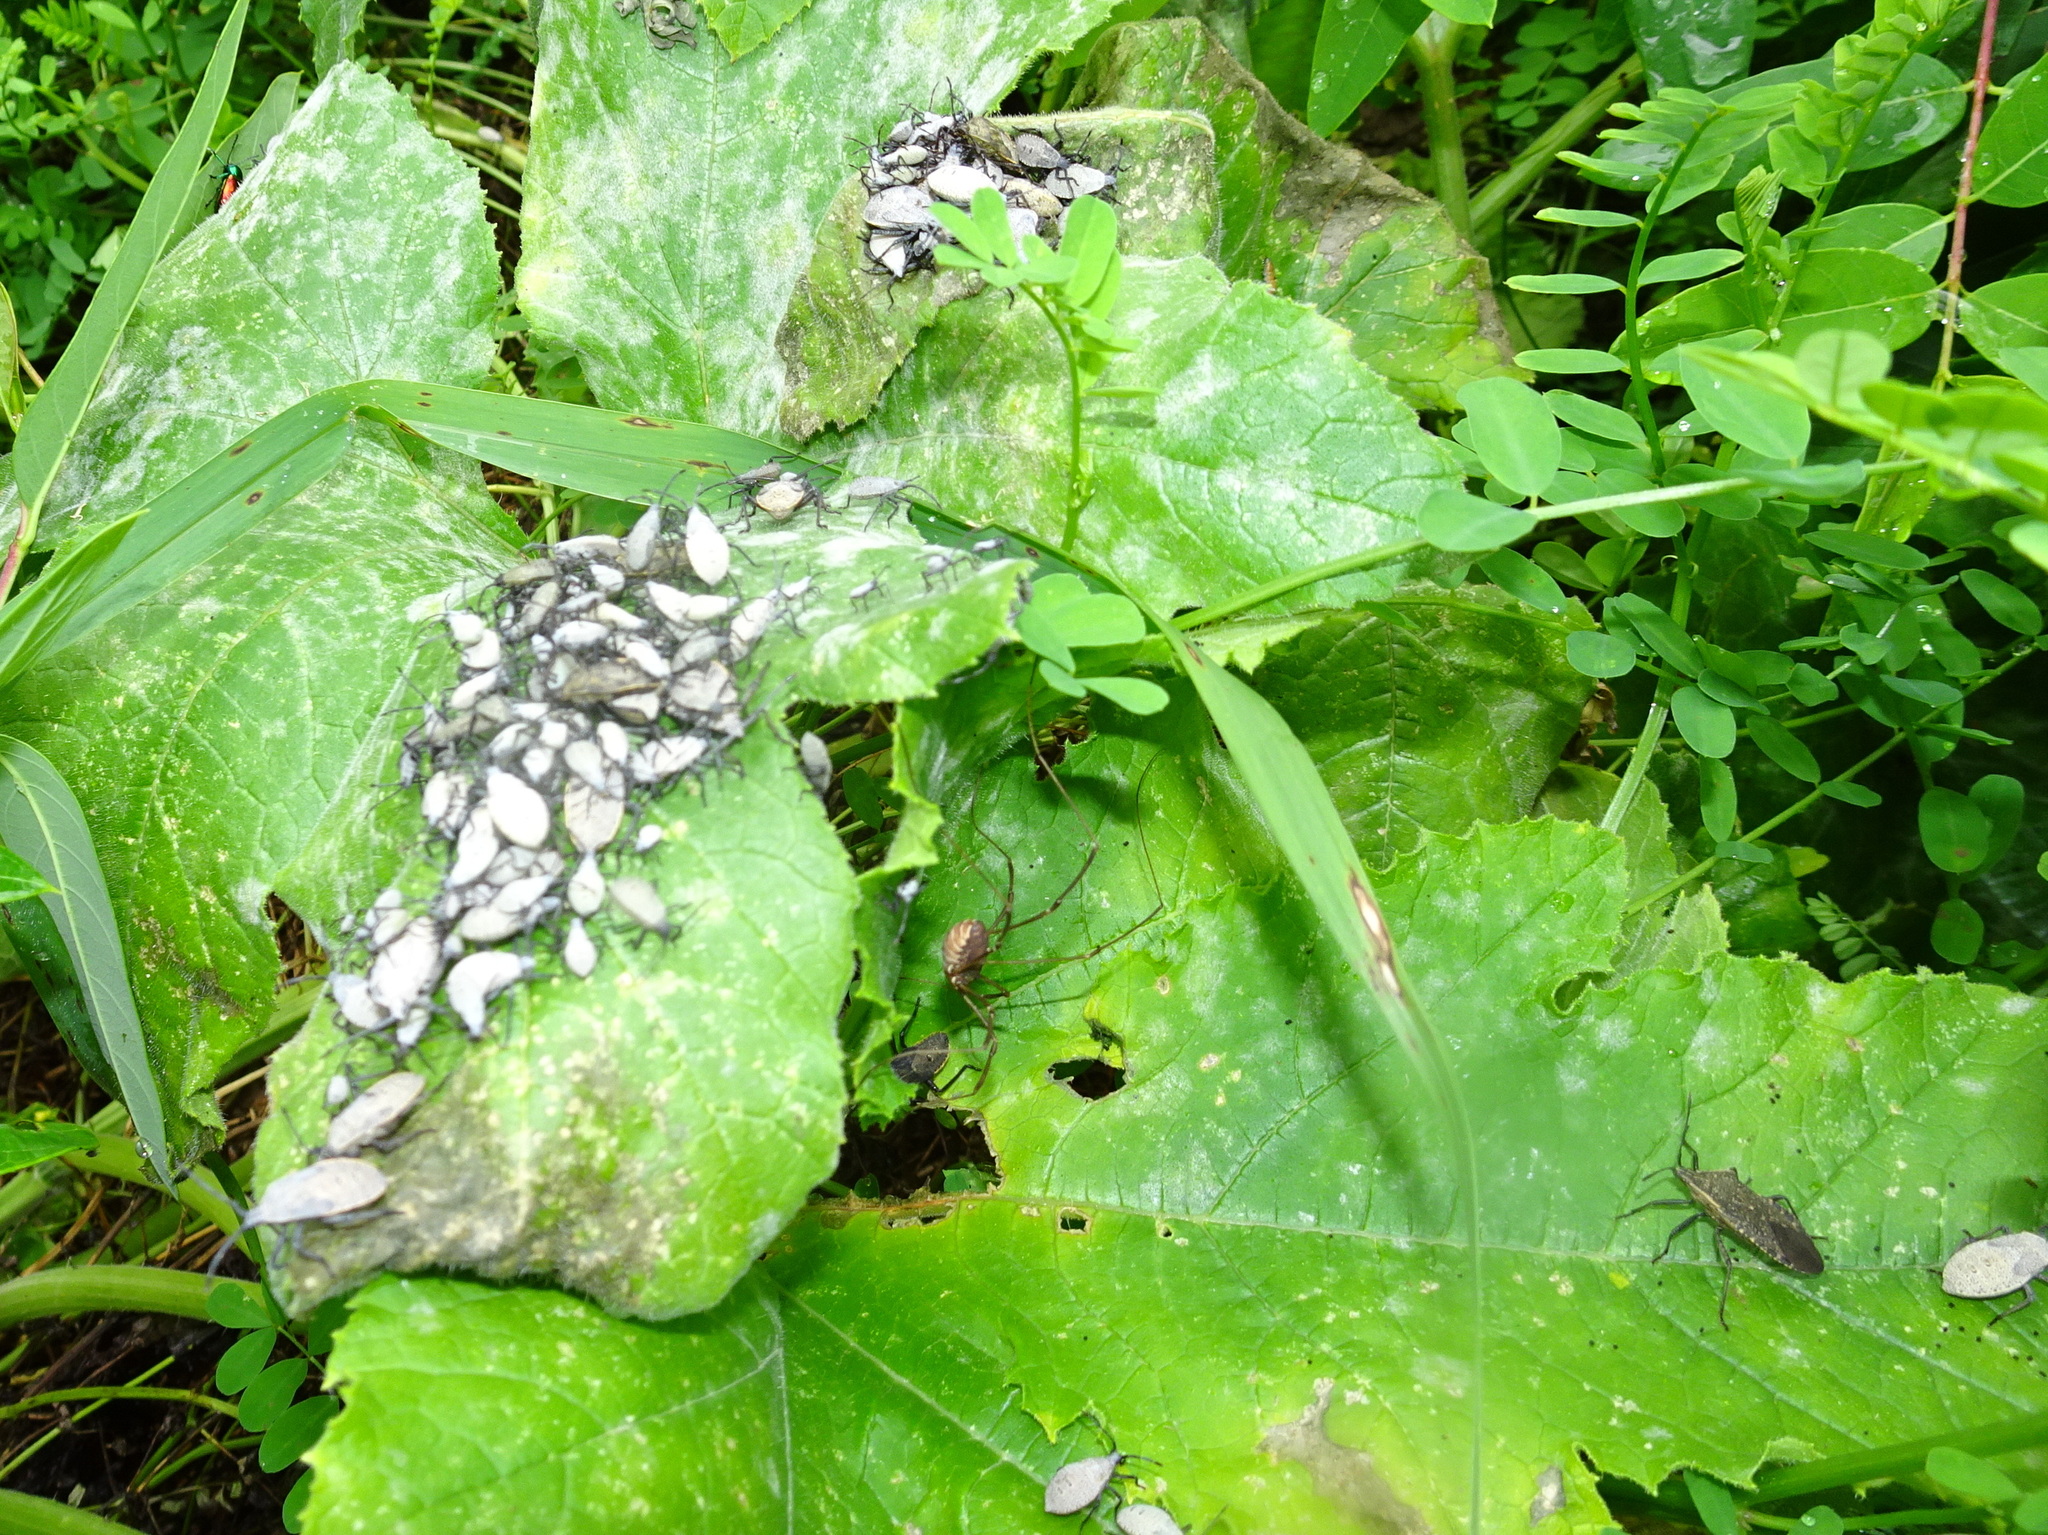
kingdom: Animalia
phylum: Arthropoda
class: Insecta
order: Hemiptera
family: Coreidae
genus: Anasa
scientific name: Anasa tristis
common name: Squash bug
